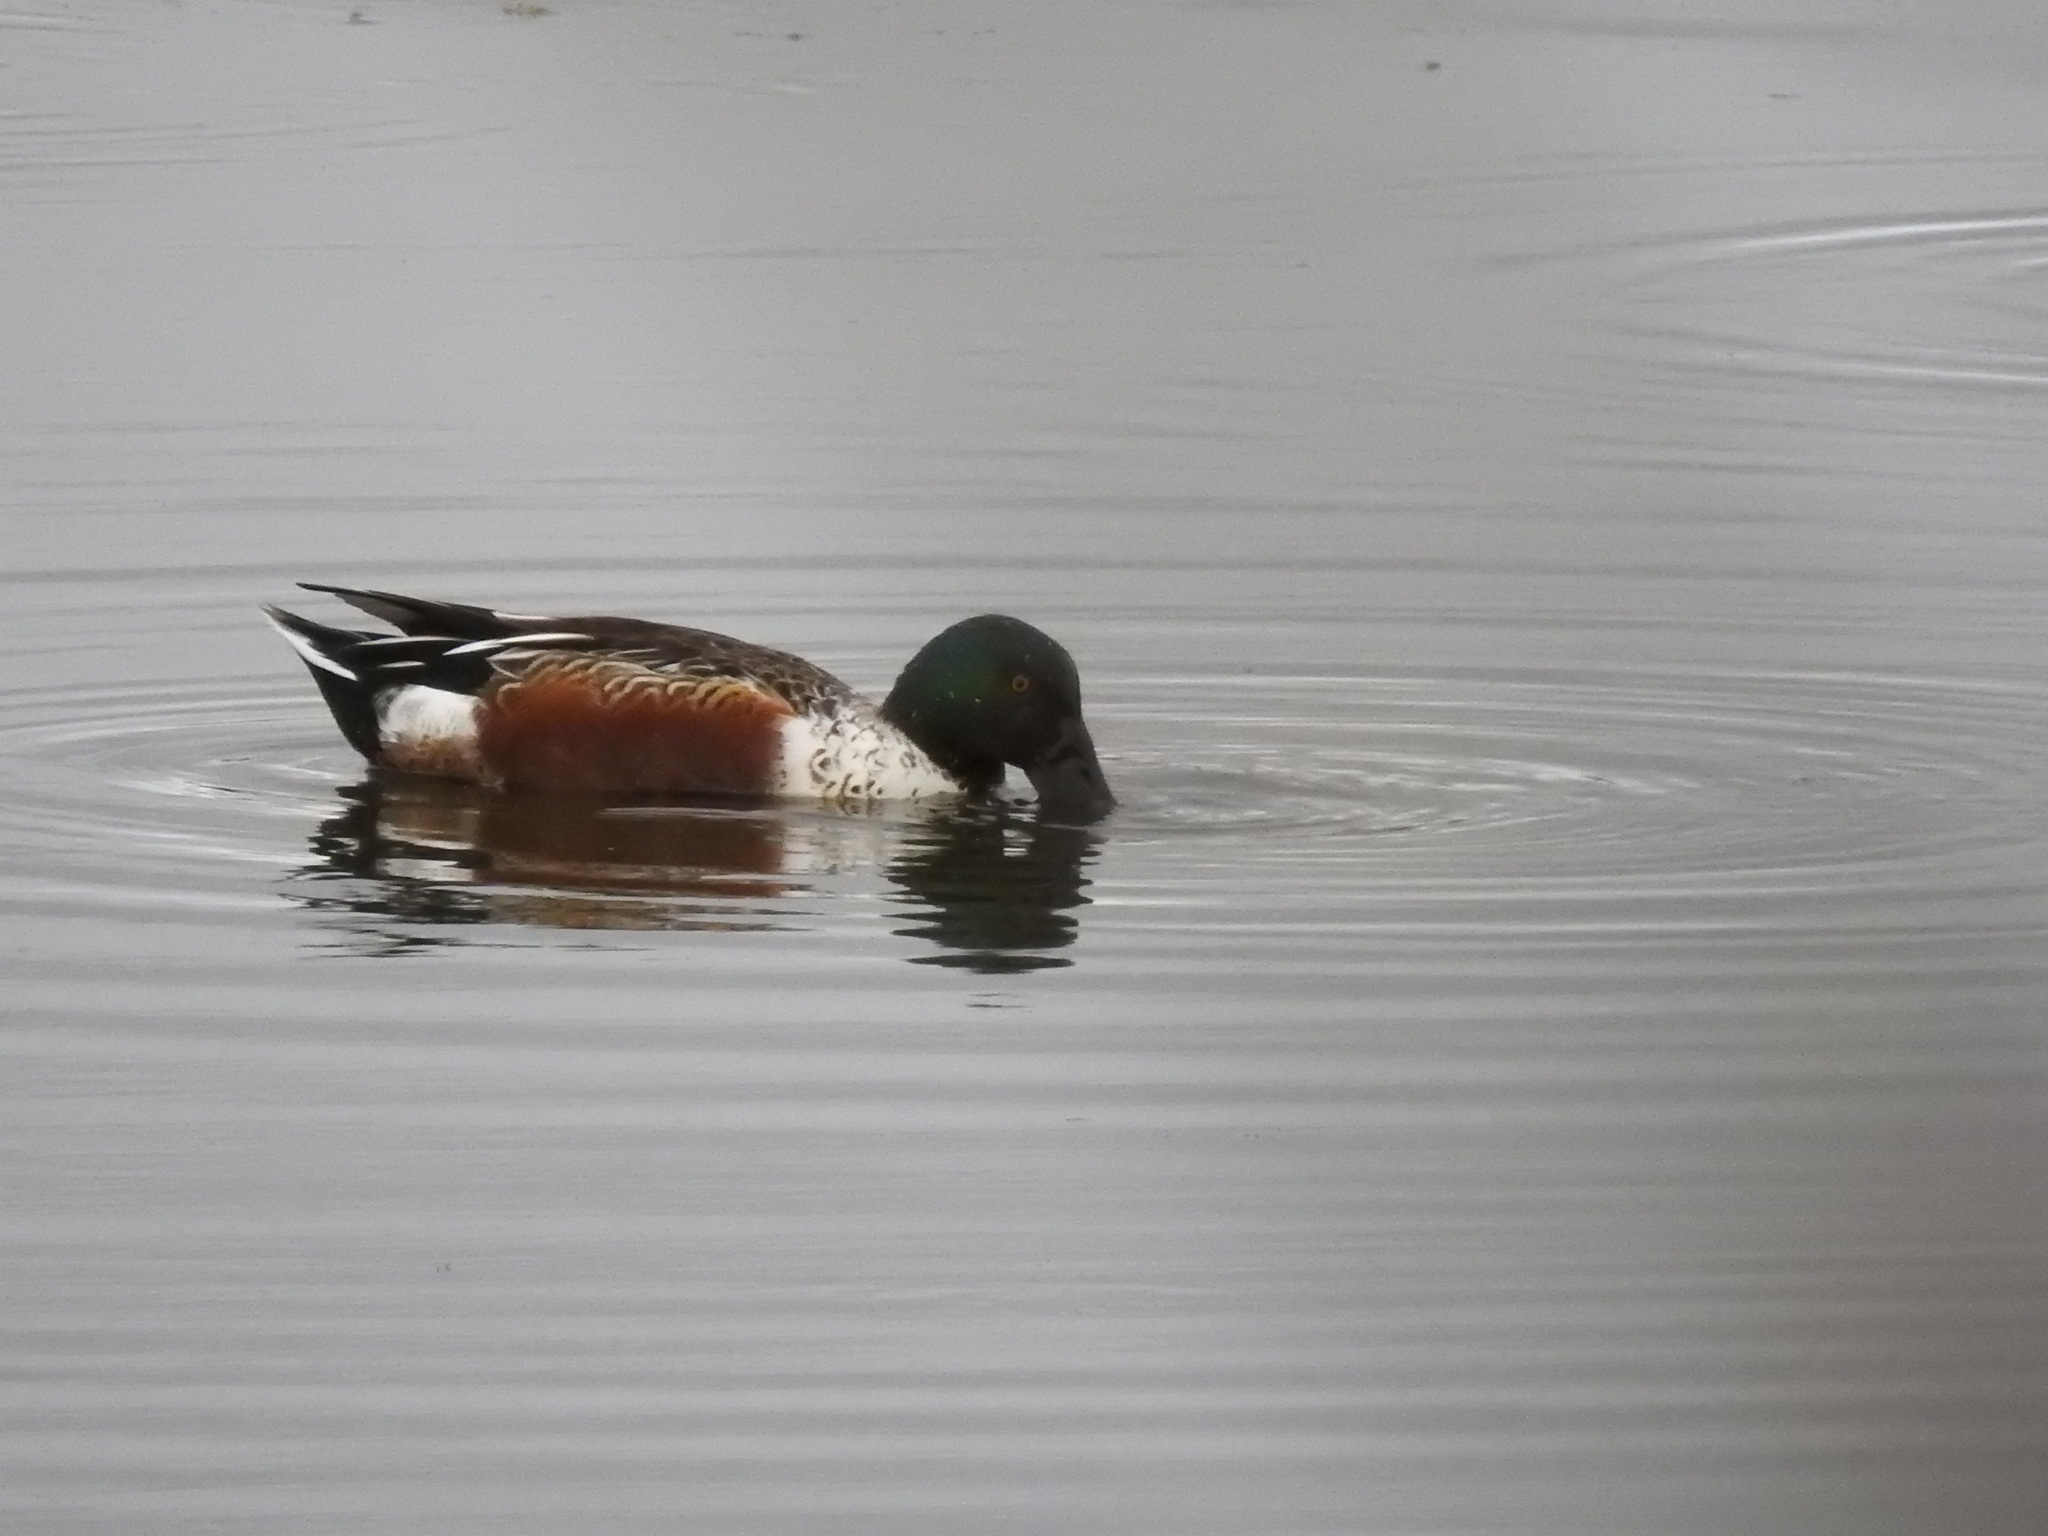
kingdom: Animalia
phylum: Chordata
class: Aves
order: Anseriformes
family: Anatidae
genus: Spatula
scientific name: Spatula clypeata
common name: Northern shoveler
